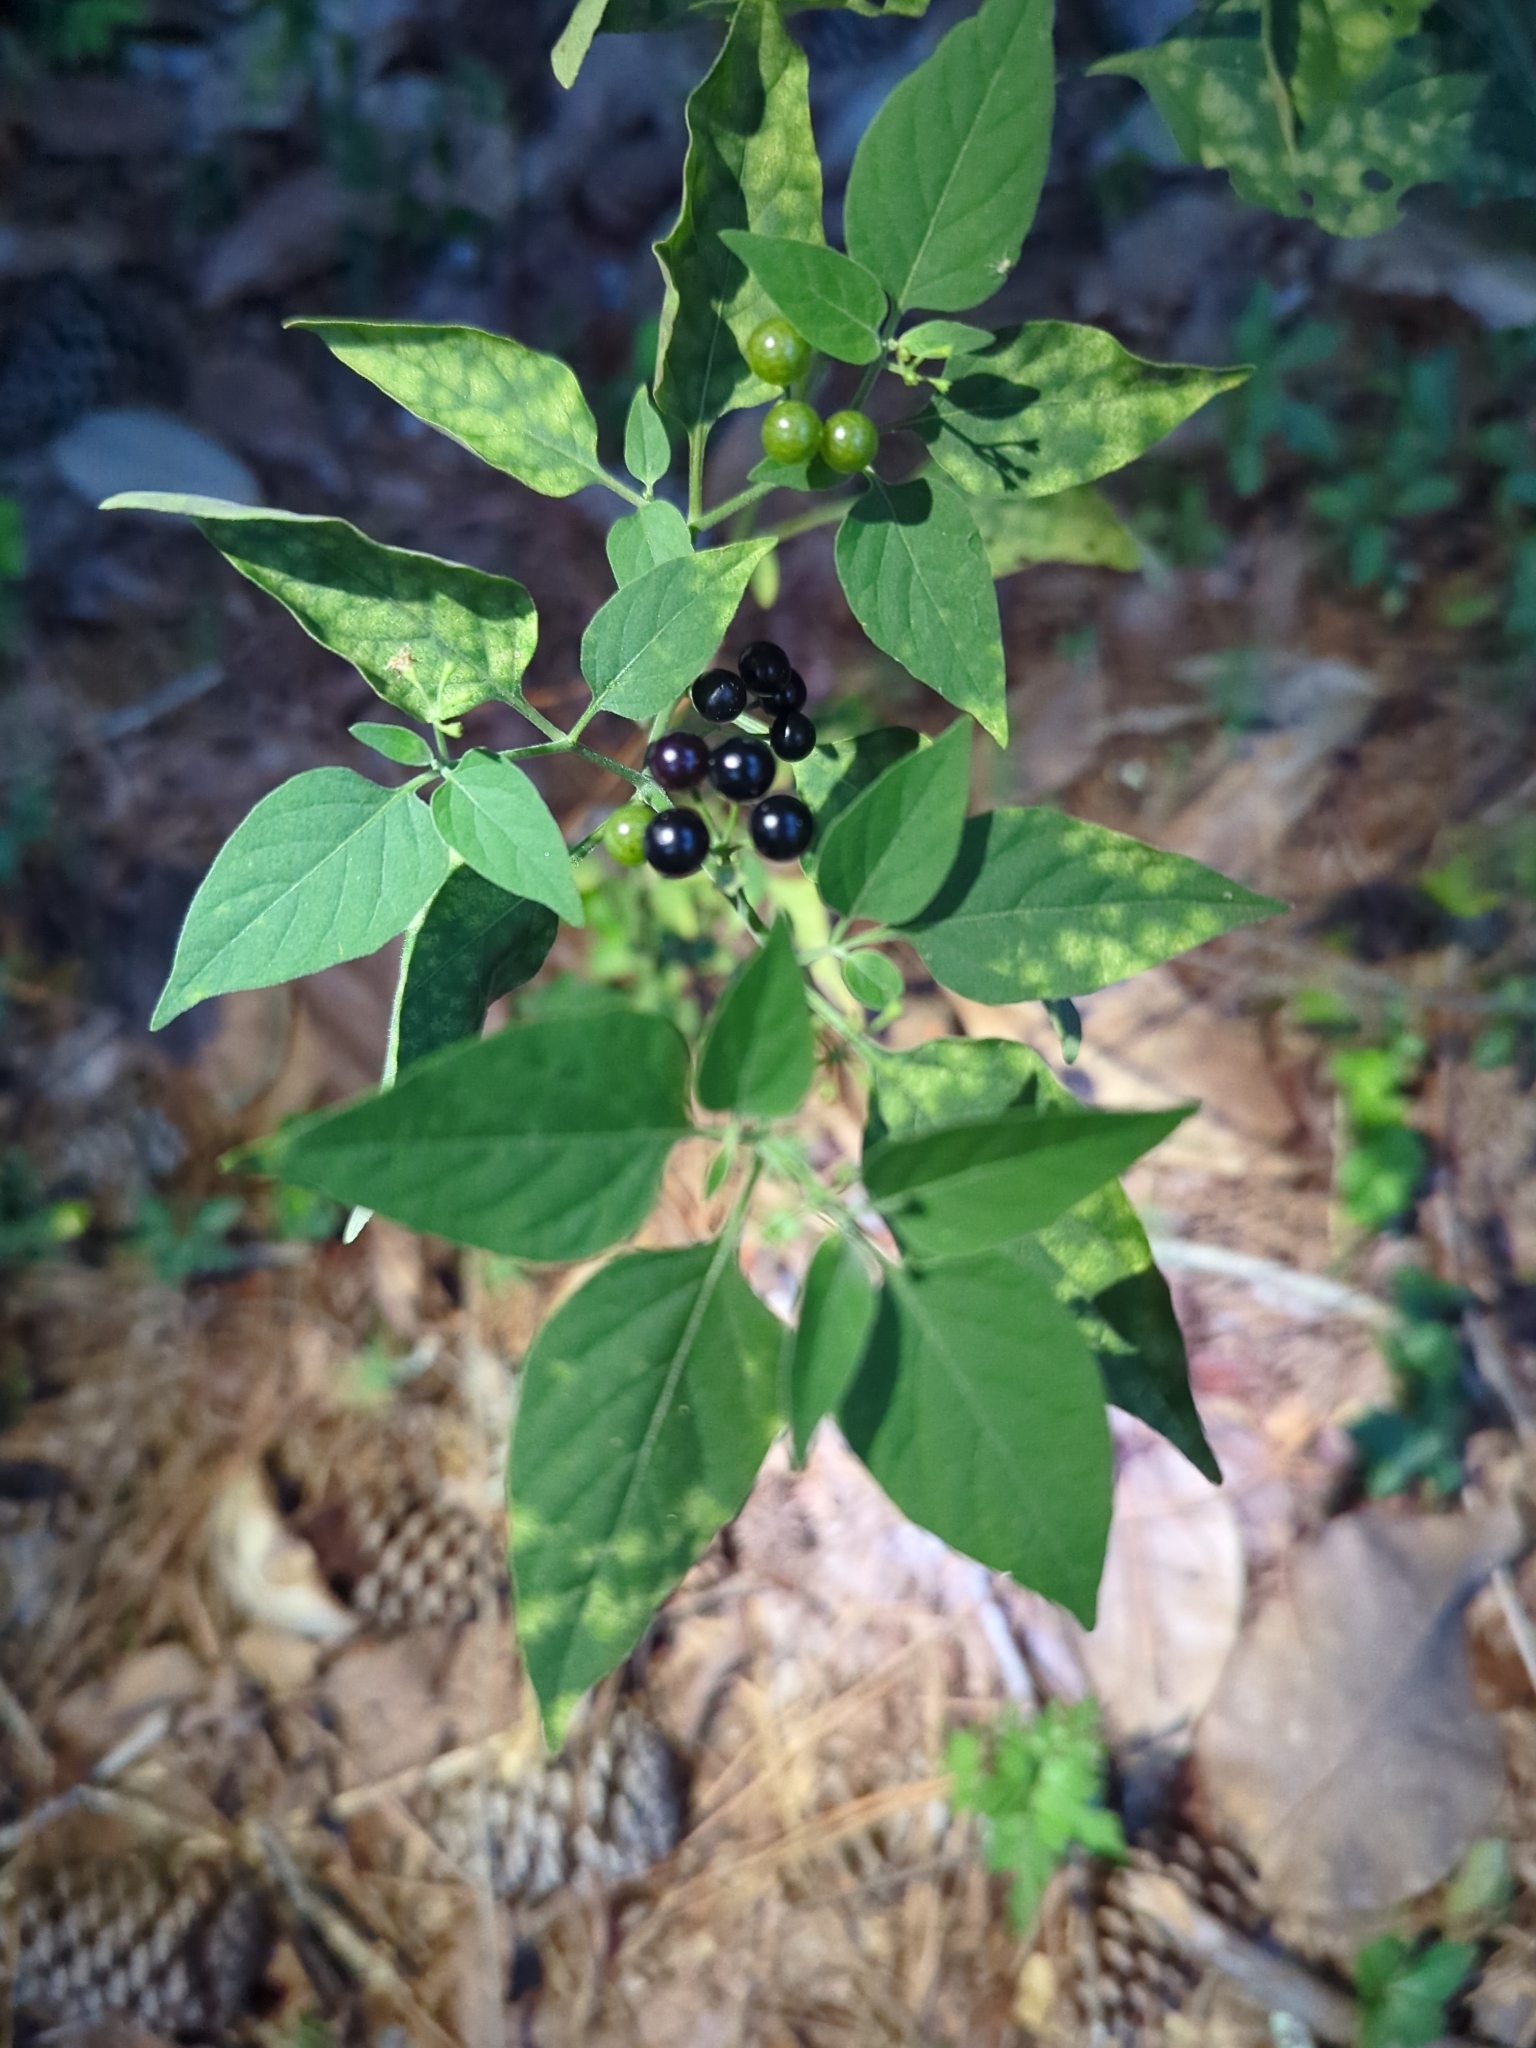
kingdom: Plantae
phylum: Tracheophyta
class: Magnoliopsida
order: Solanales
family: Solanaceae
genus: Solanum
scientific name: Solanum americanum
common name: American black nightshade
